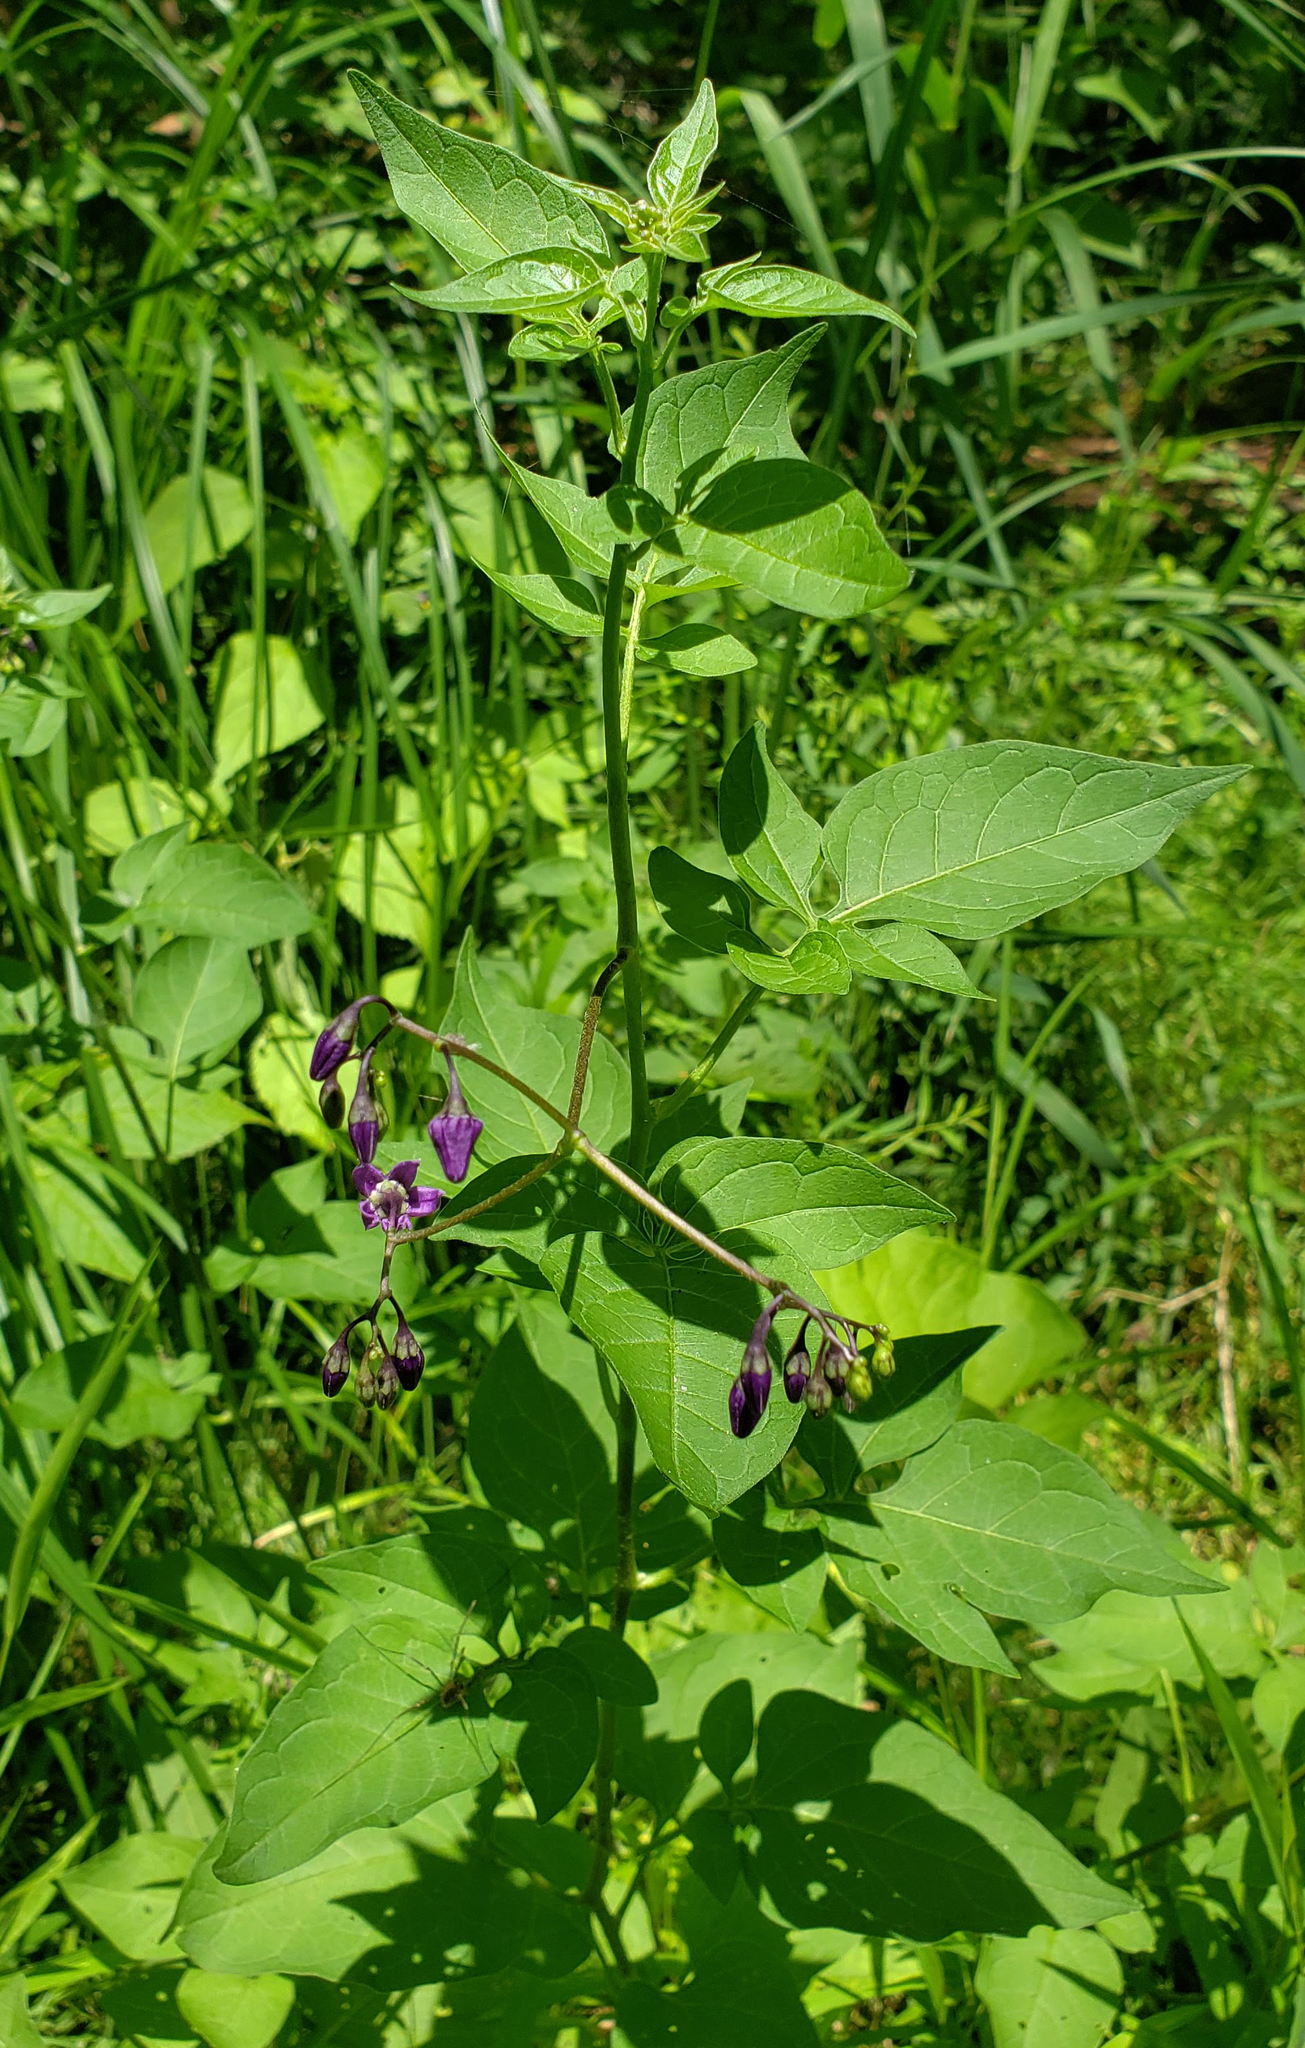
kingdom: Plantae
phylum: Tracheophyta
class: Magnoliopsida
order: Solanales
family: Solanaceae
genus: Solanum
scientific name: Solanum dulcamara
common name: Climbing nightshade
